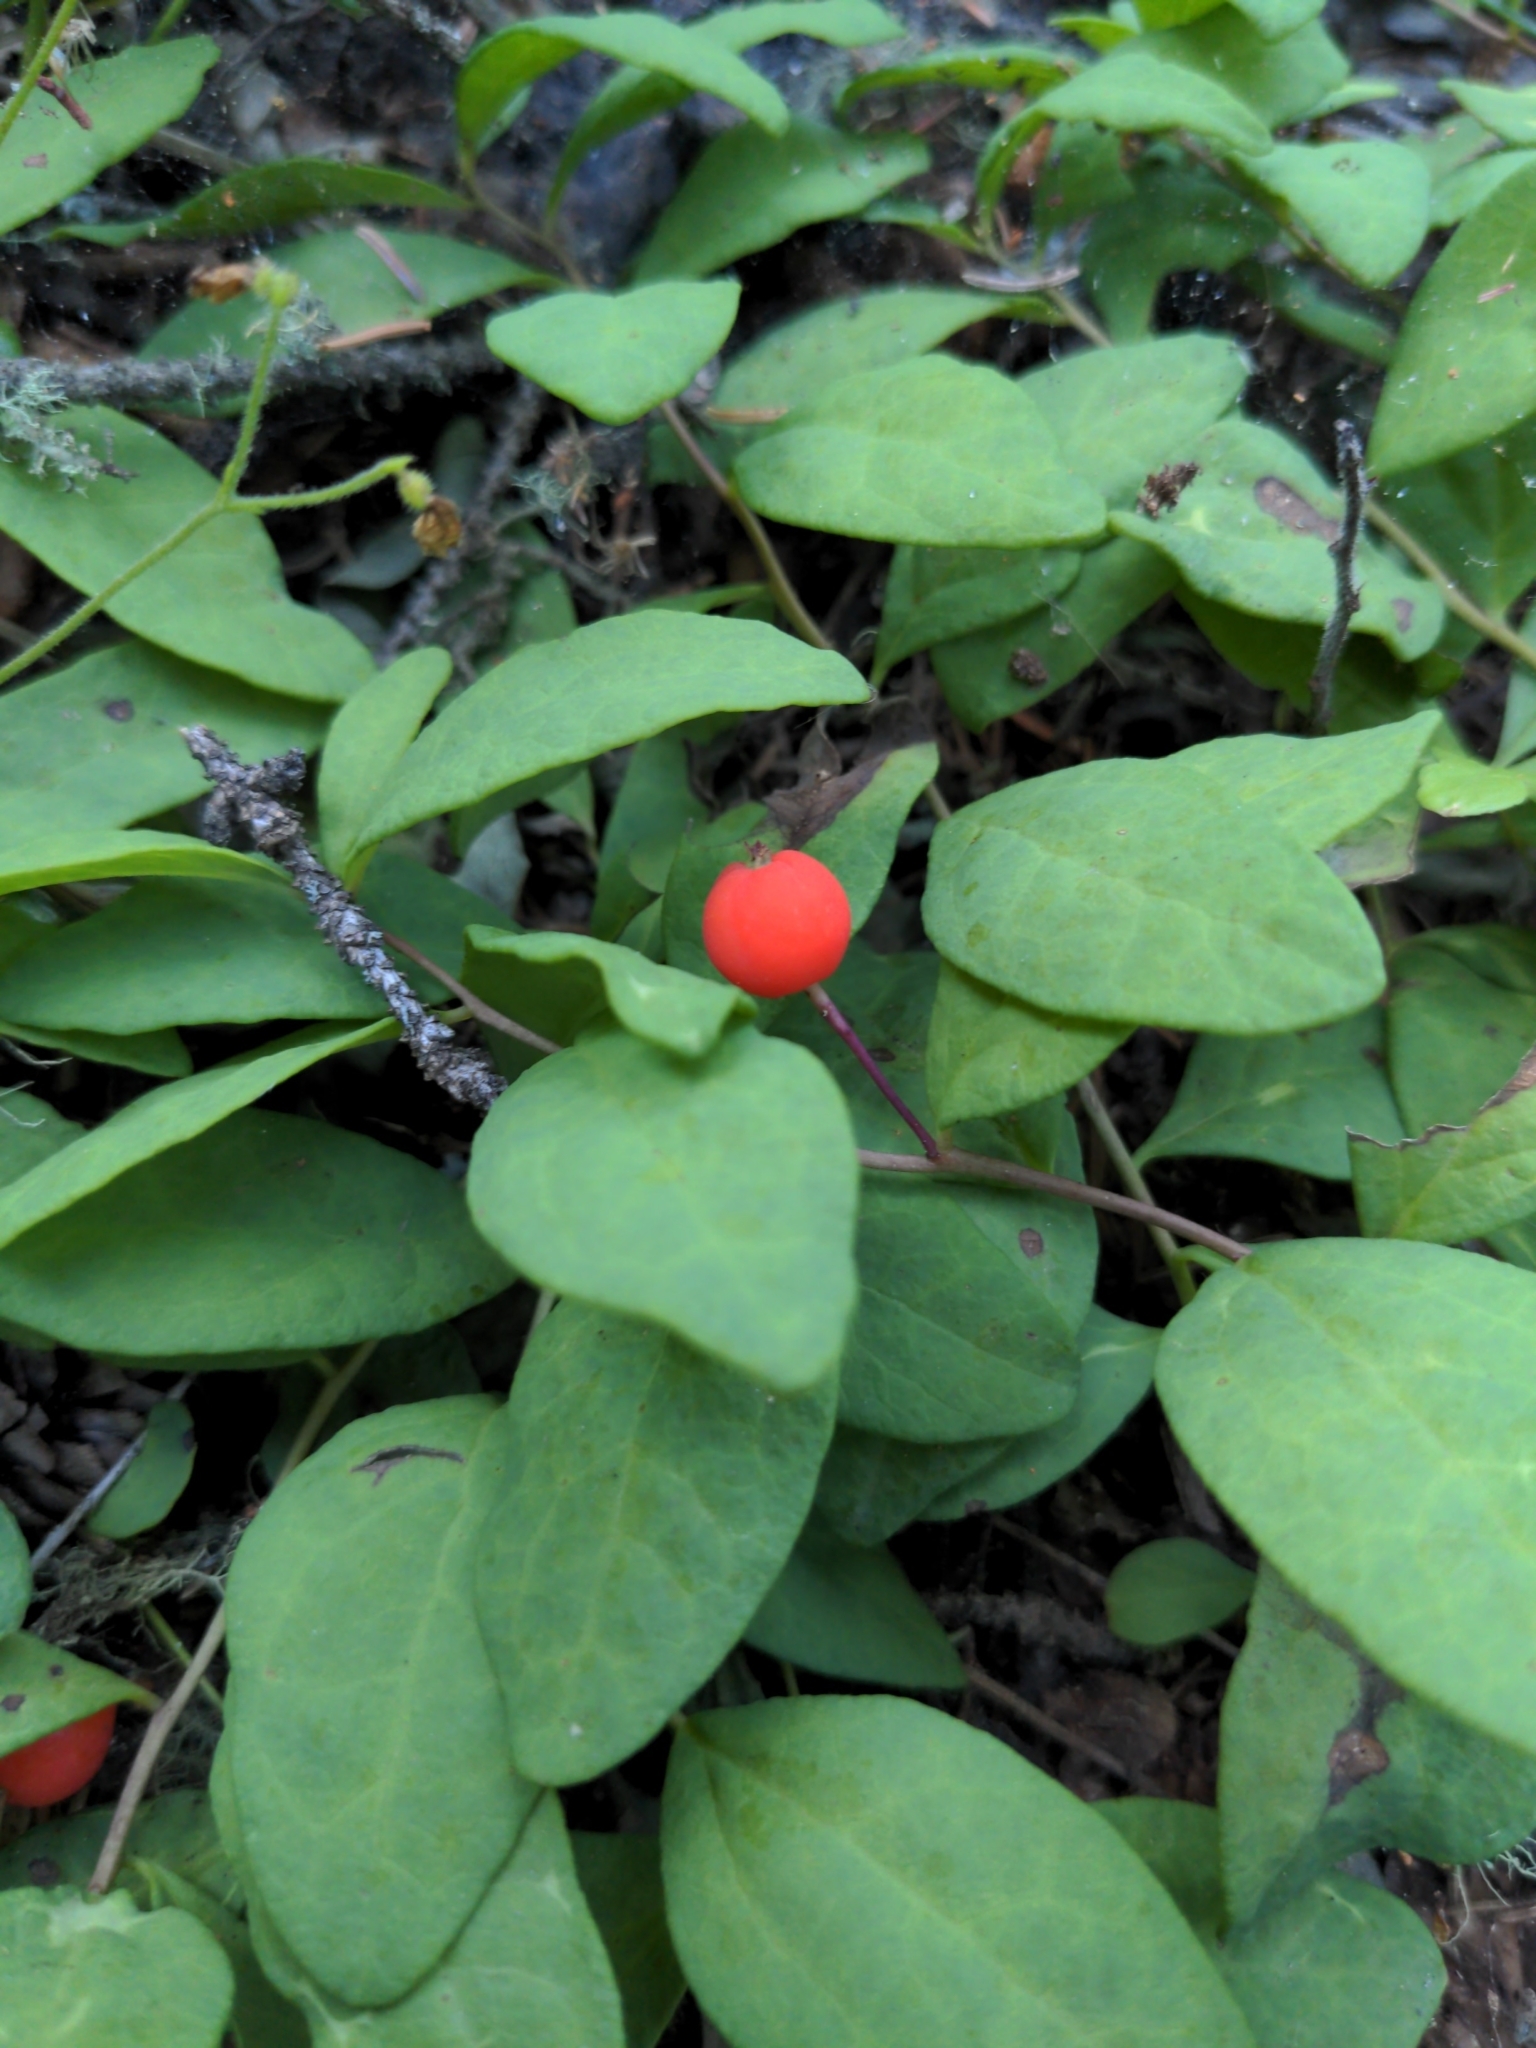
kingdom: Plantae
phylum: Tracheophyta
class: Magnoliopsida
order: Santalales
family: Comandraceae
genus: Geocaulon
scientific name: Geocaulon lividum
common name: Earthberry
